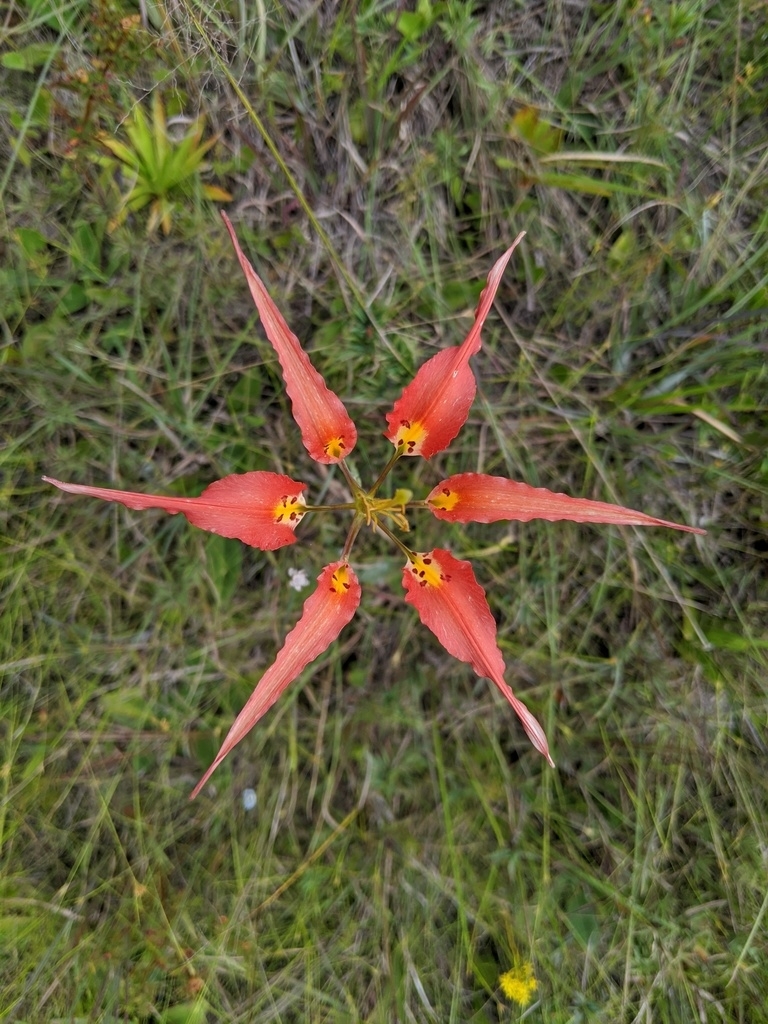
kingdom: Plantae
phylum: Tracheophyta
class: Liliopsida
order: Liliales
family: Liliaceae
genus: Lilium
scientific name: Lilium catesbaei
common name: Catesby's lily
